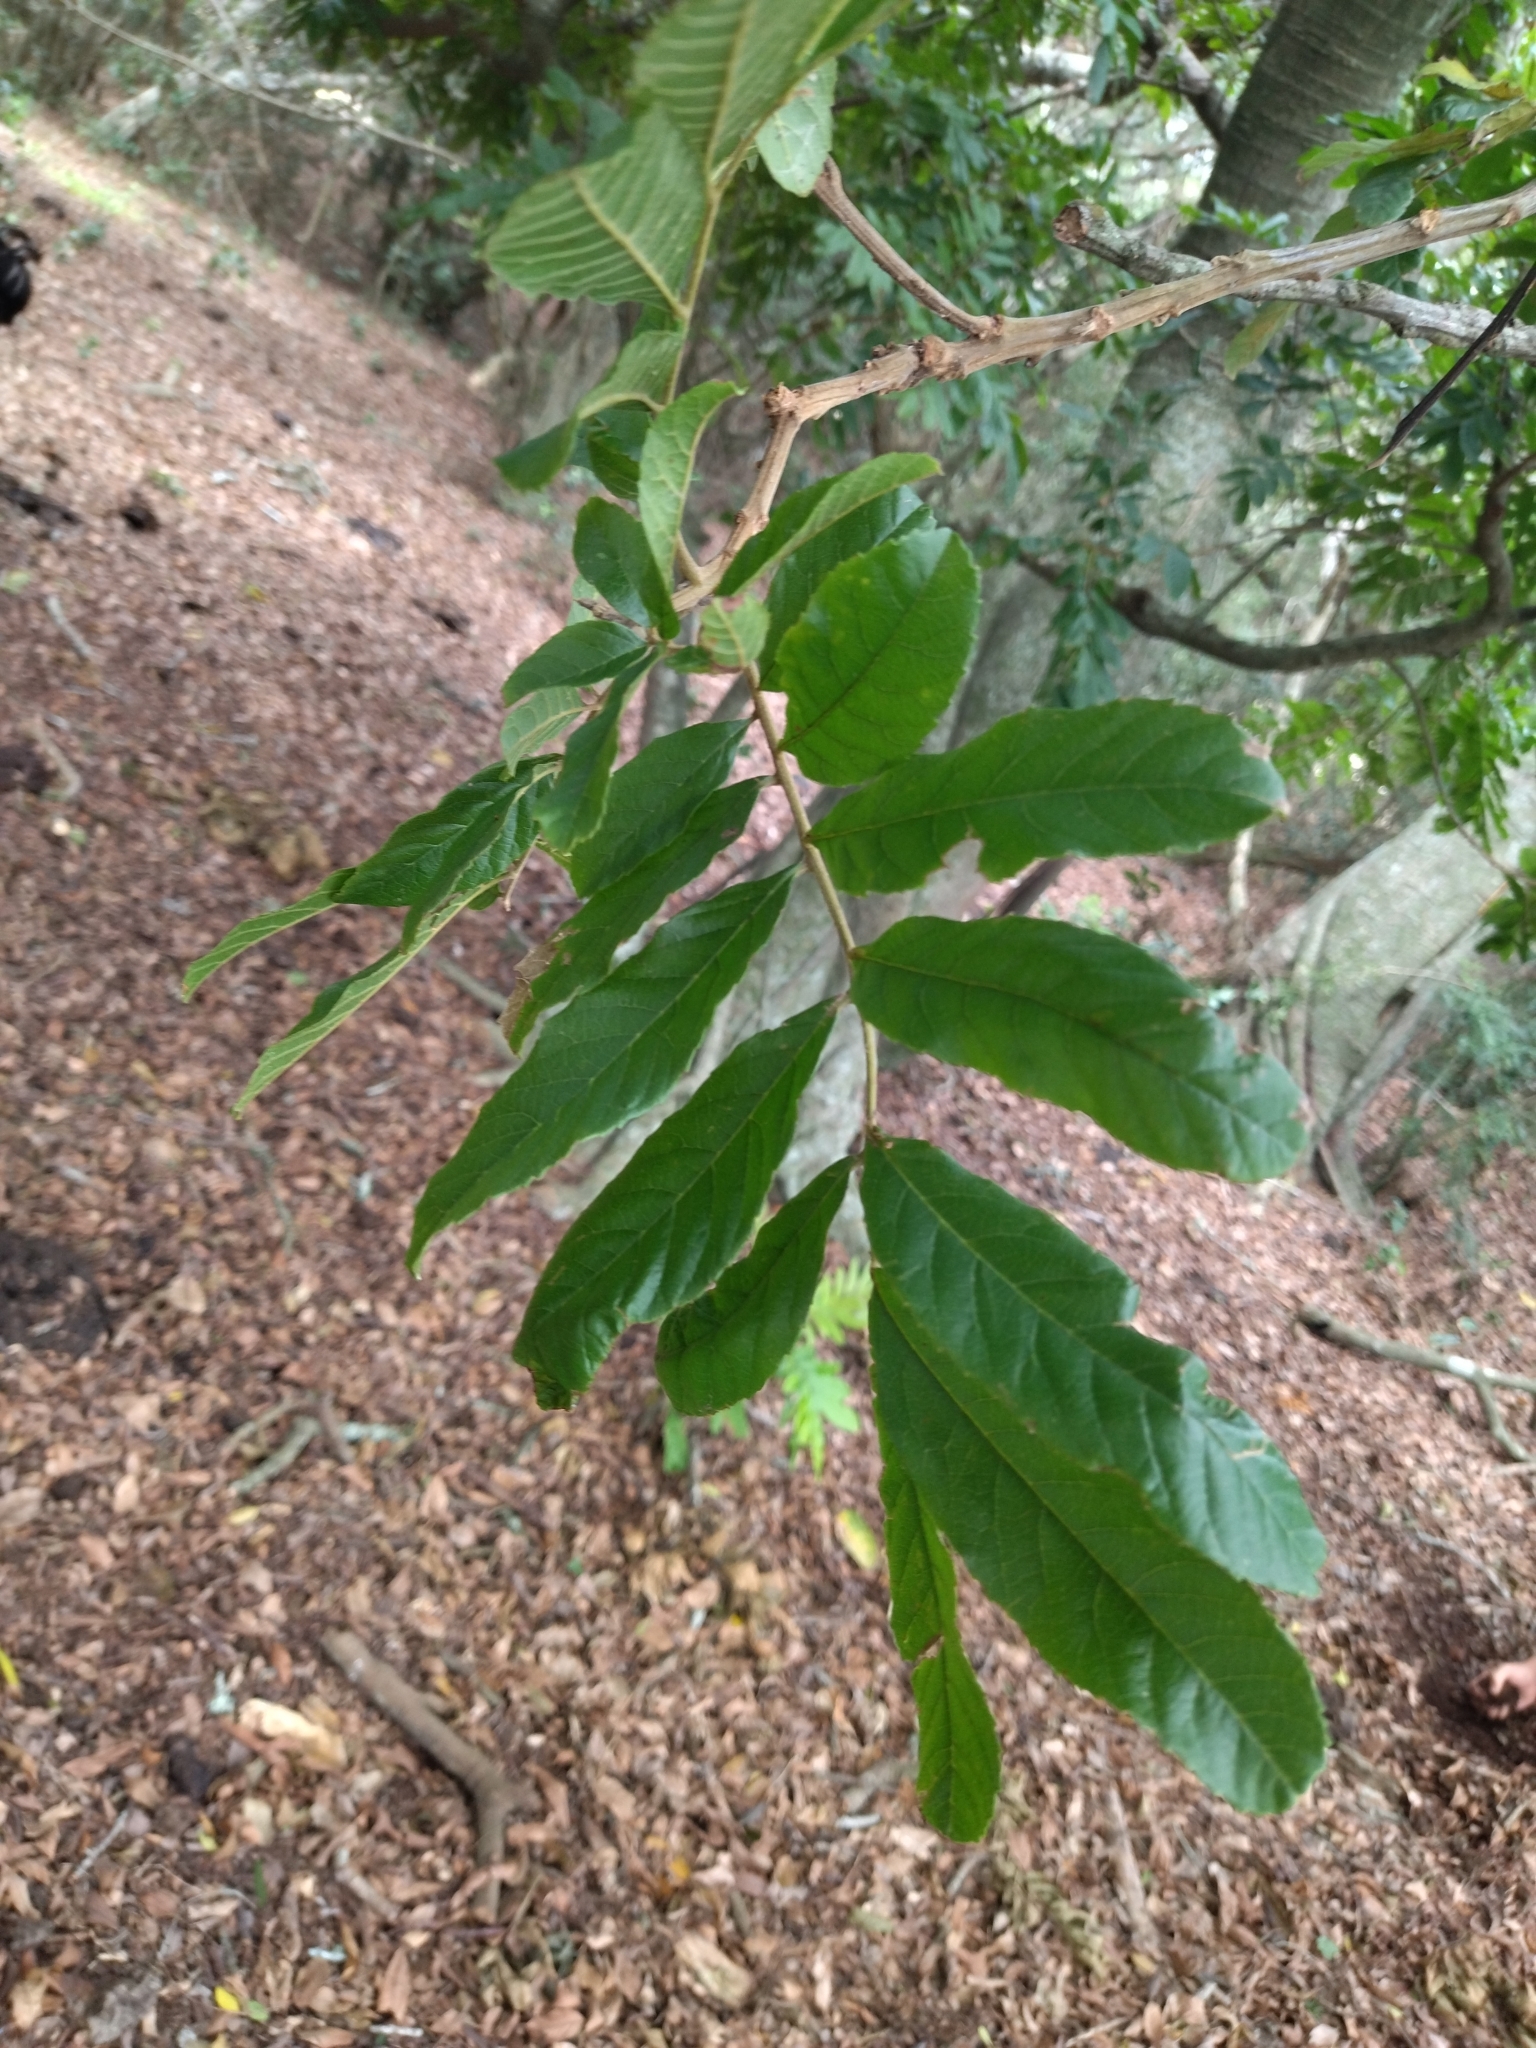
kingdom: Plantae
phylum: Tracheophyta
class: Magnoliopsida
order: Sapindales
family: Sapindaceae
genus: Cupania
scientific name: Cupania vernalis
